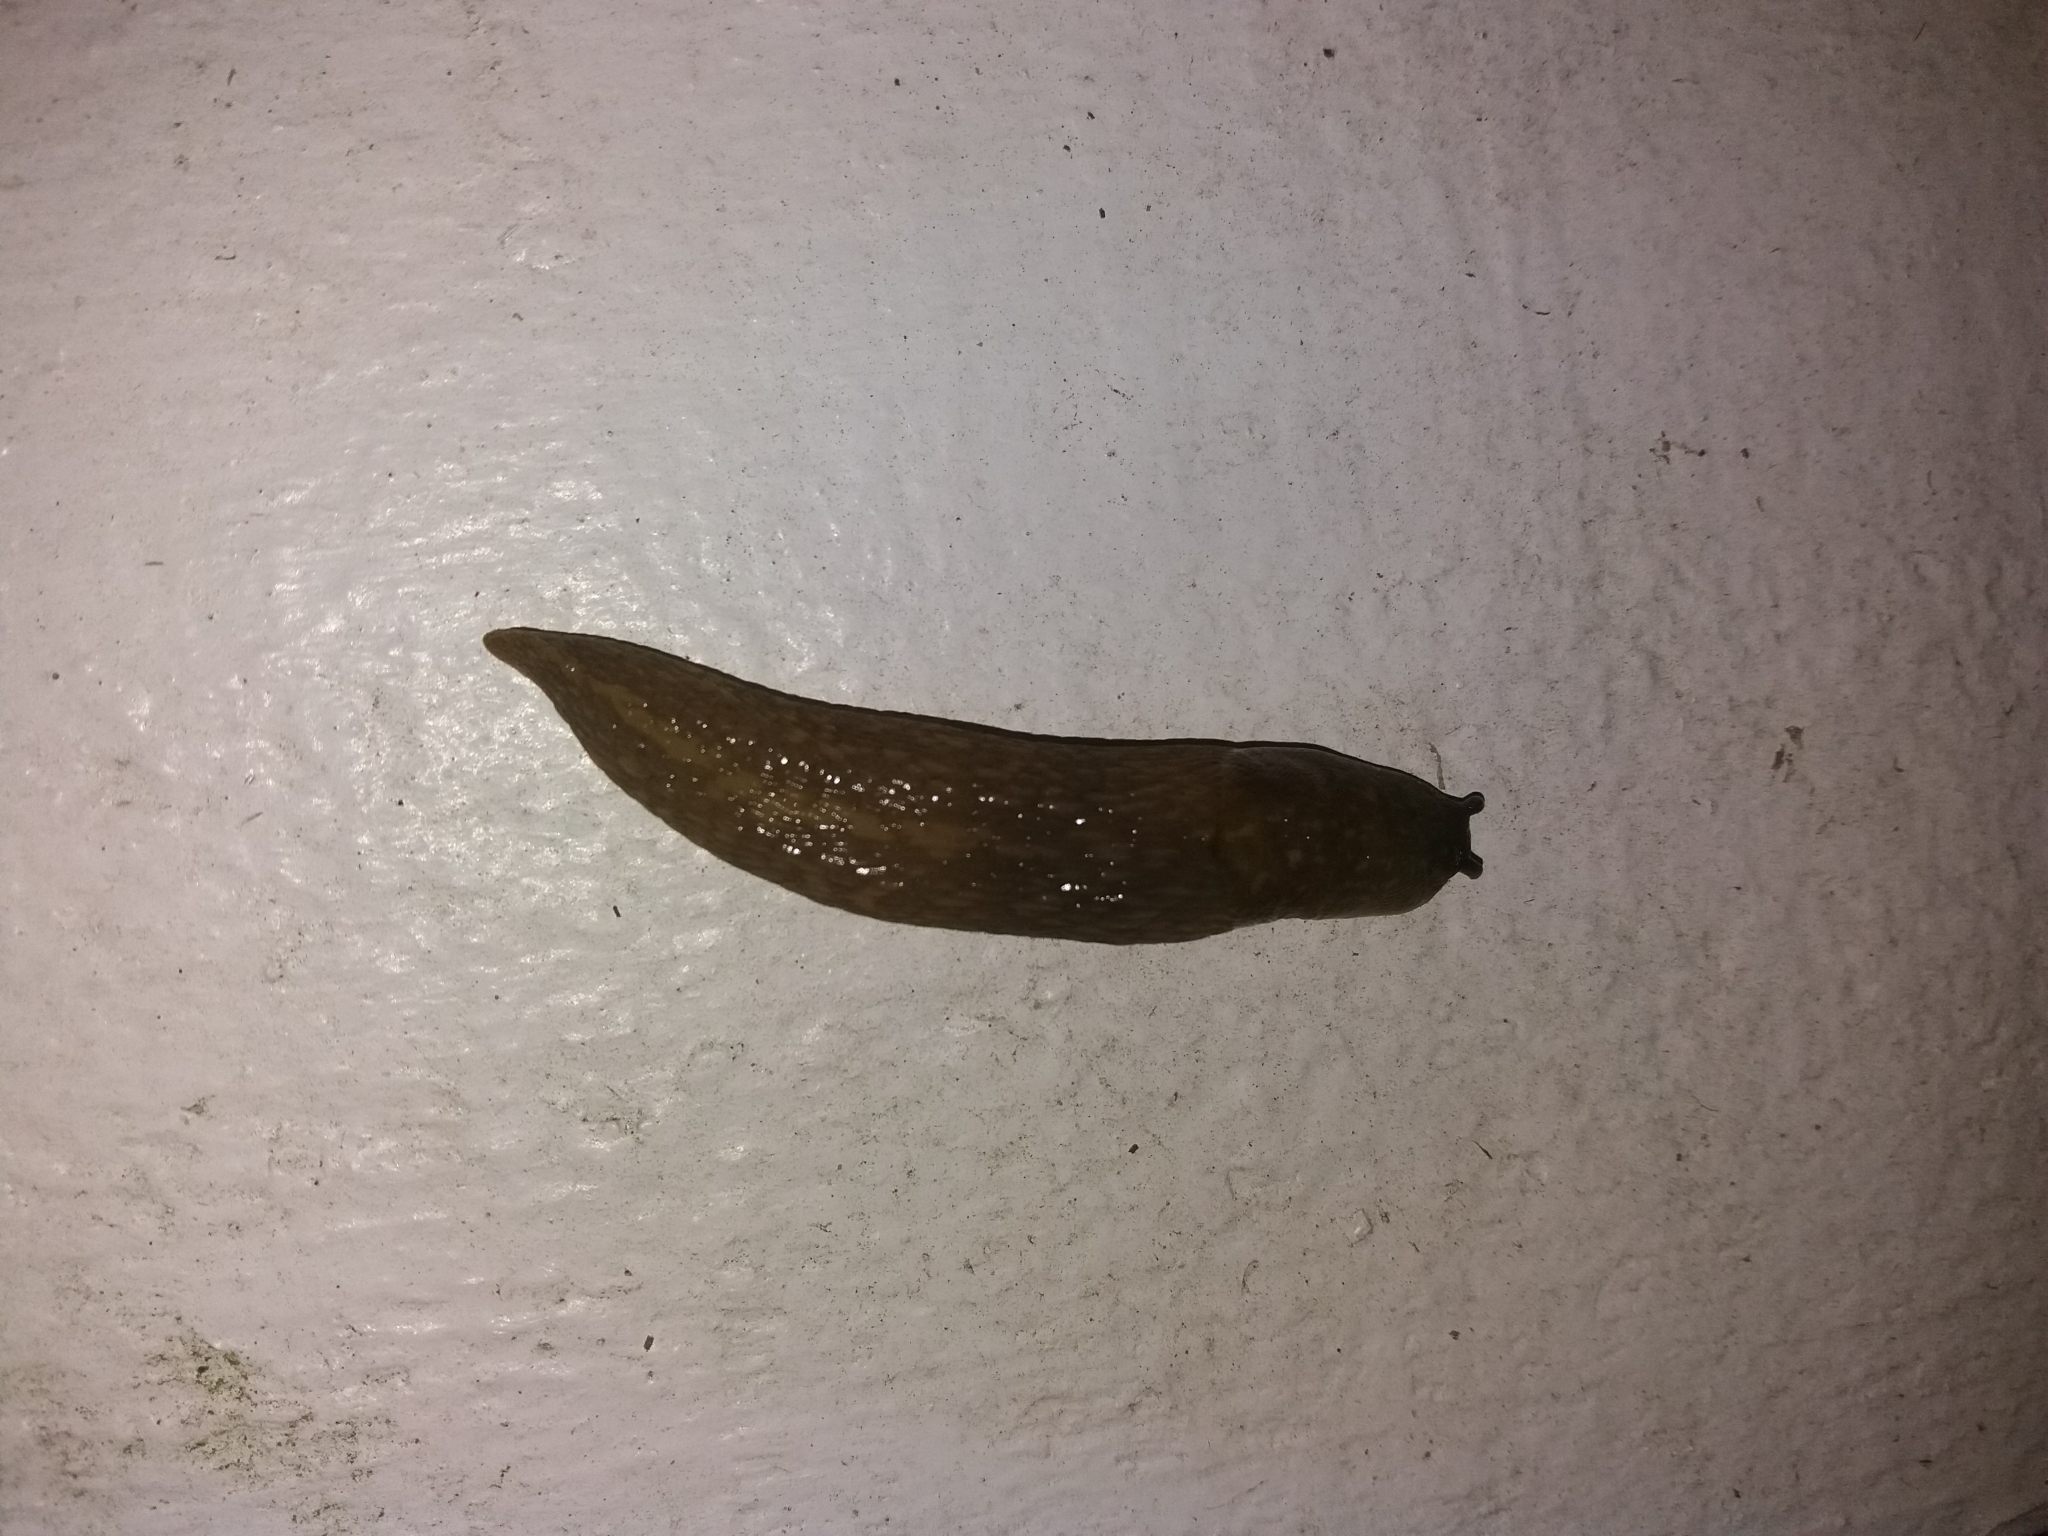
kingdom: Animalia
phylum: Mollusca
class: Gastropoda
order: Stylommatophora
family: Limacidae
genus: Limacus
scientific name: Limacus flavus
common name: Yellow gardenslug
